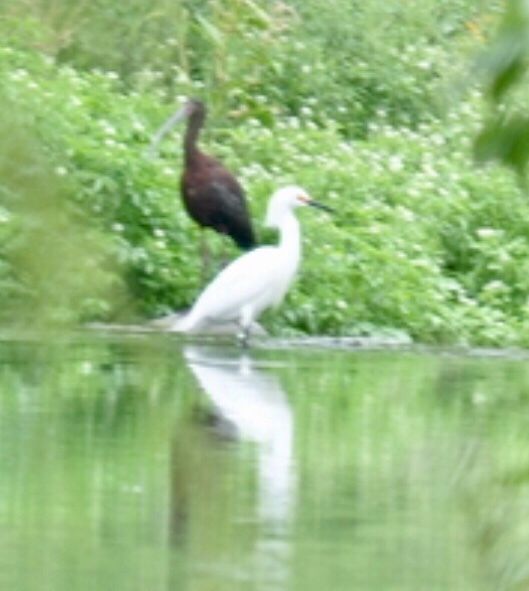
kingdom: Animalia
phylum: Chordata
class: Aves
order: Pelecaniformes
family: Ardeidae
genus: Egretta
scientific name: Egretta thula
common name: Snowy egret
